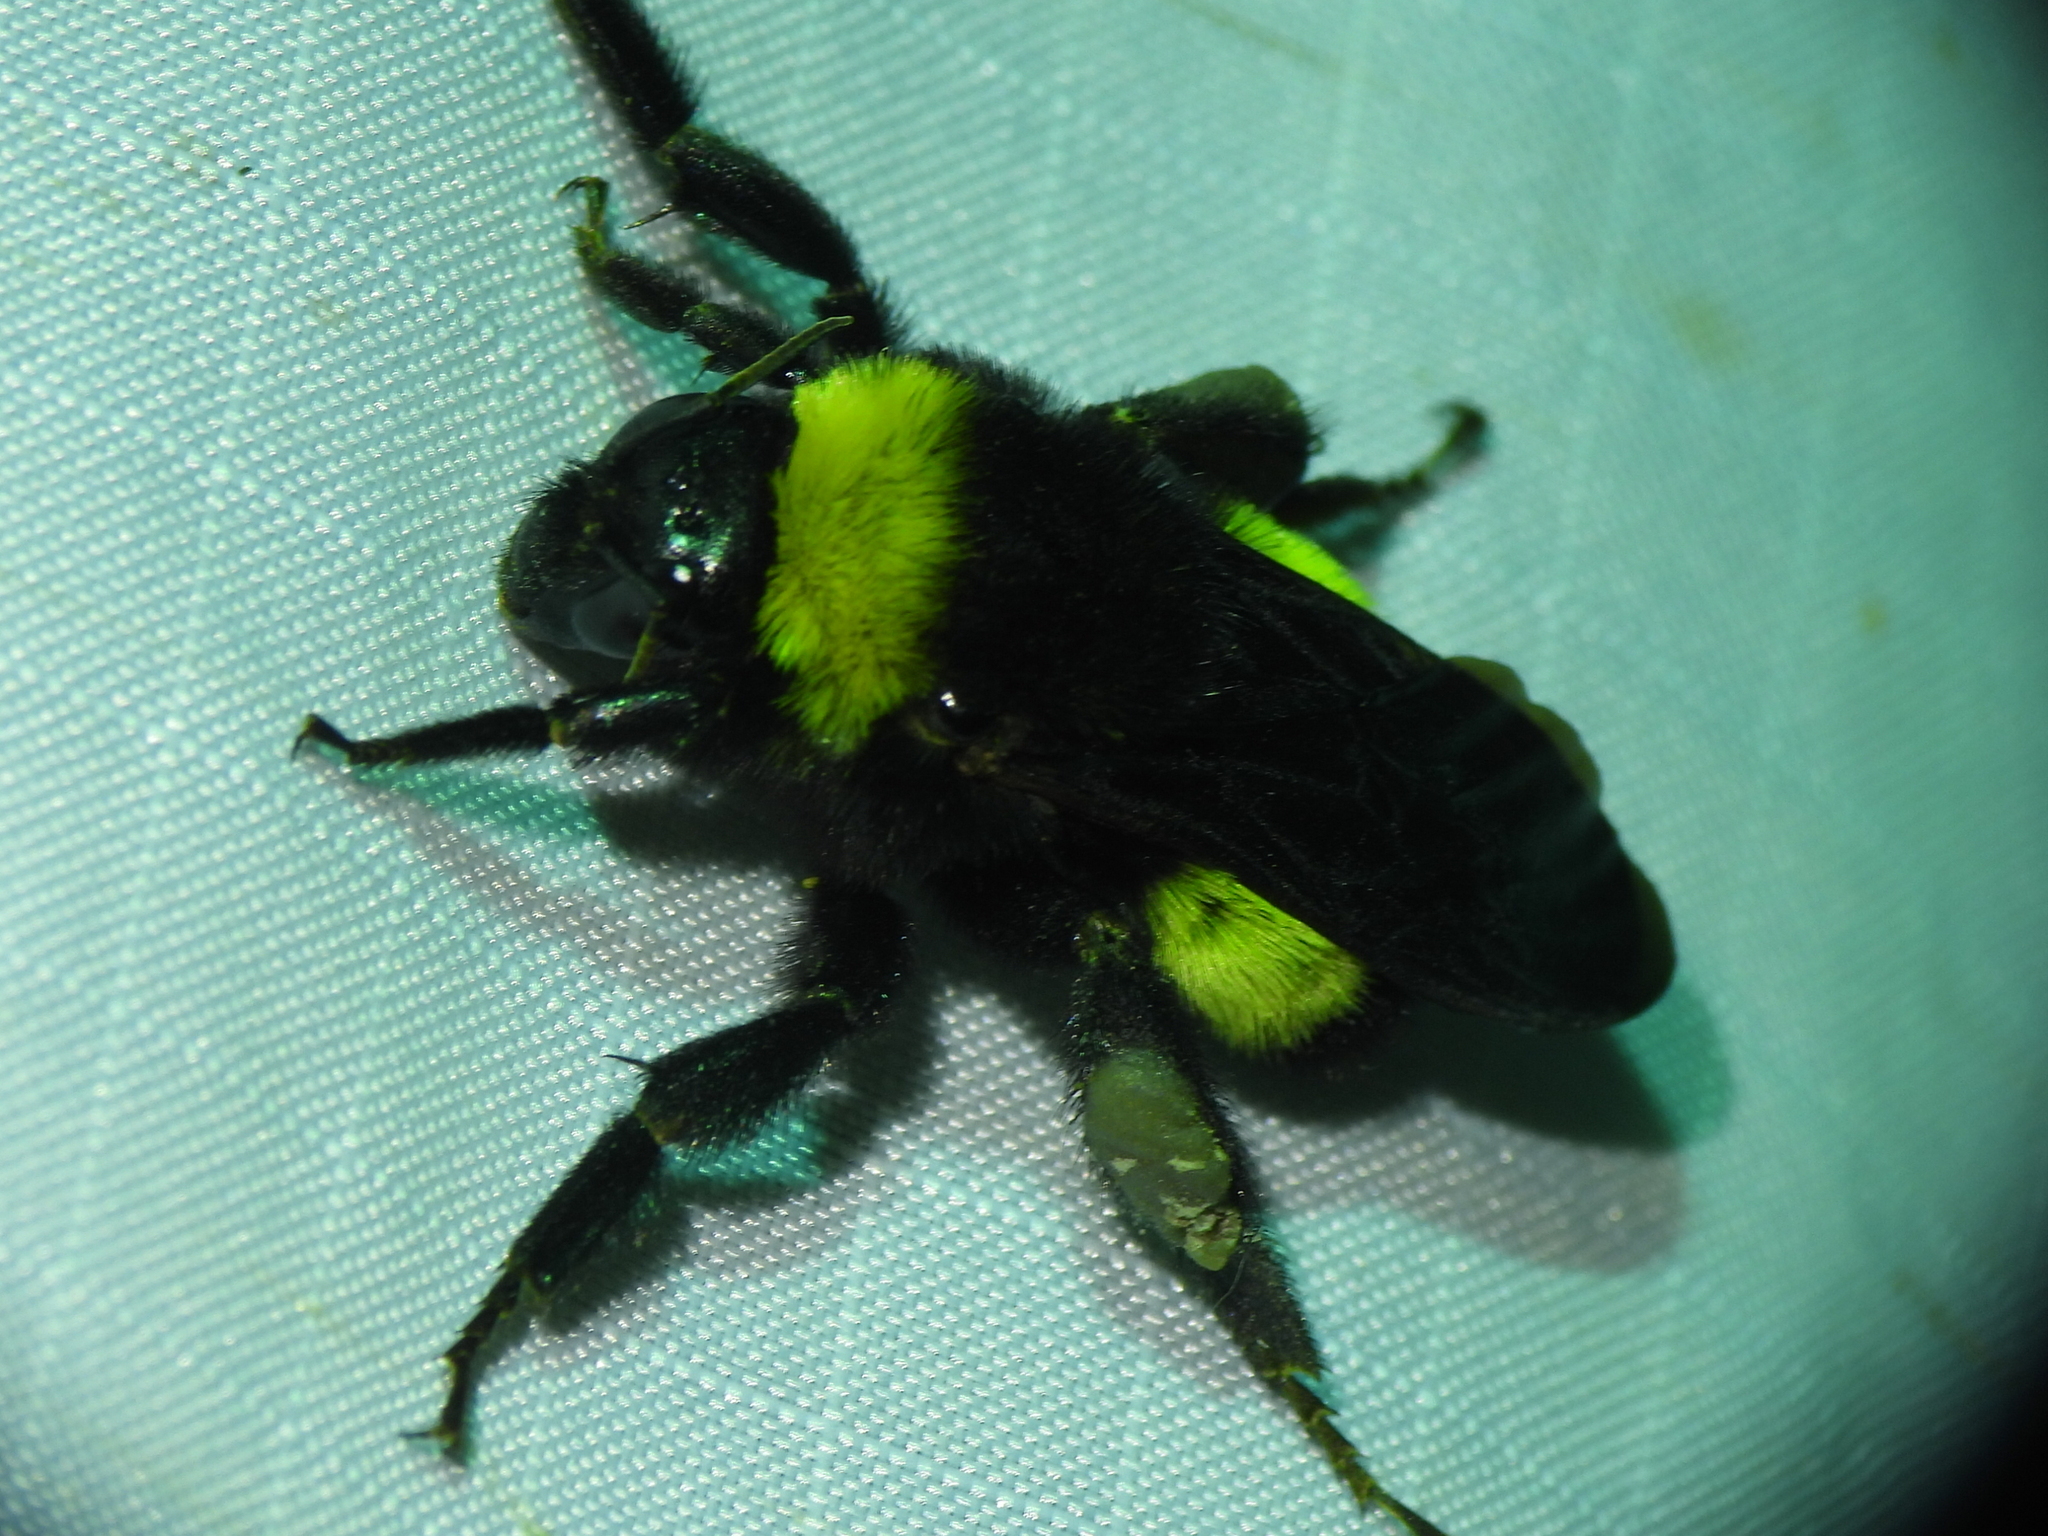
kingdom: Animalia
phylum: Arthropoda
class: Insecta
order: Hymenoptera
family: Apidae
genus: Bombus
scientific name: Bombus pensylvanicus
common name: Bumble bee
